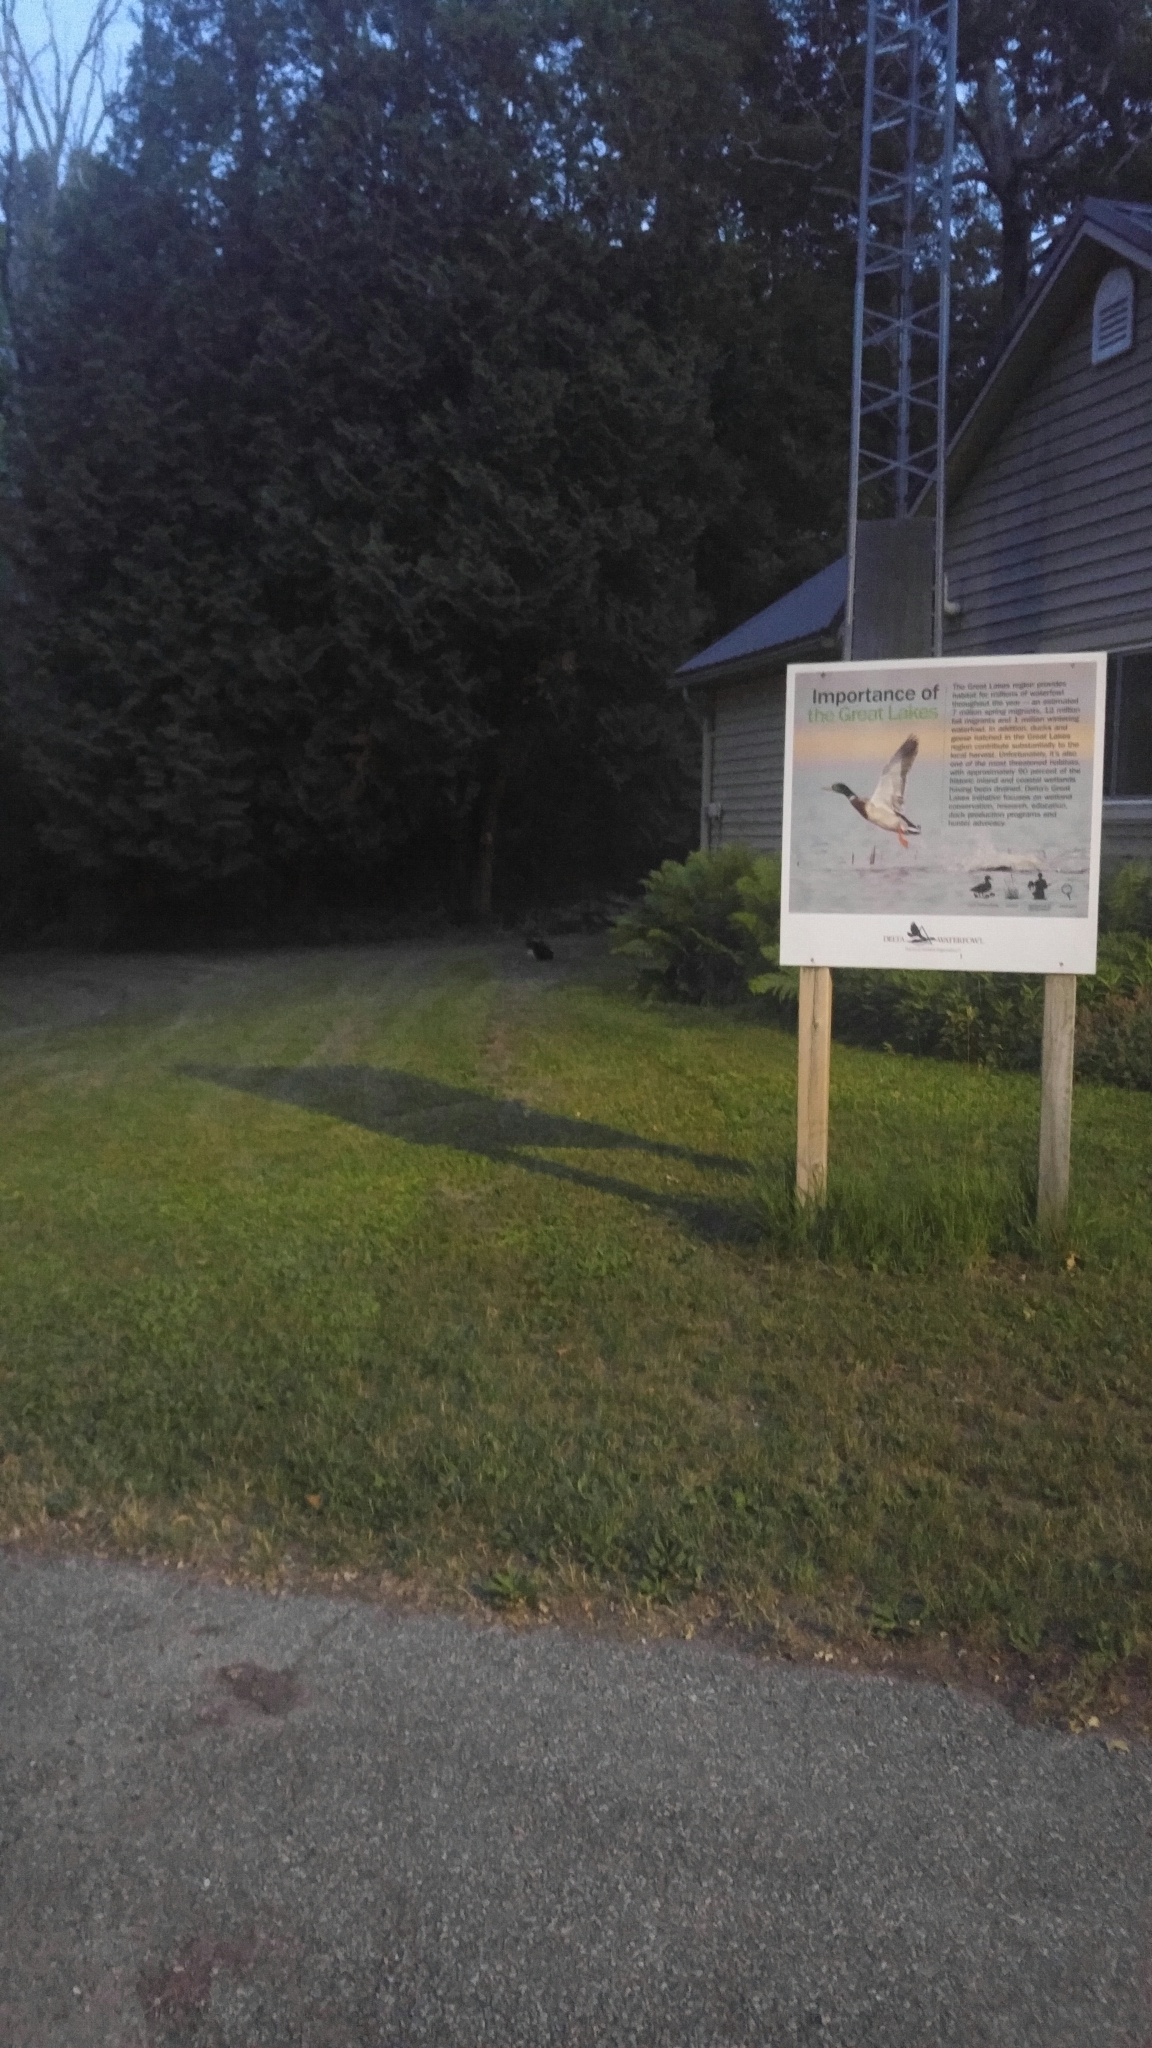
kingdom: Animalia
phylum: Chordata
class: Mammalia
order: Carnivora
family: Mephitidae
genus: Mephitis
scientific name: Mephitis mephitis
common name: Striped skunk
